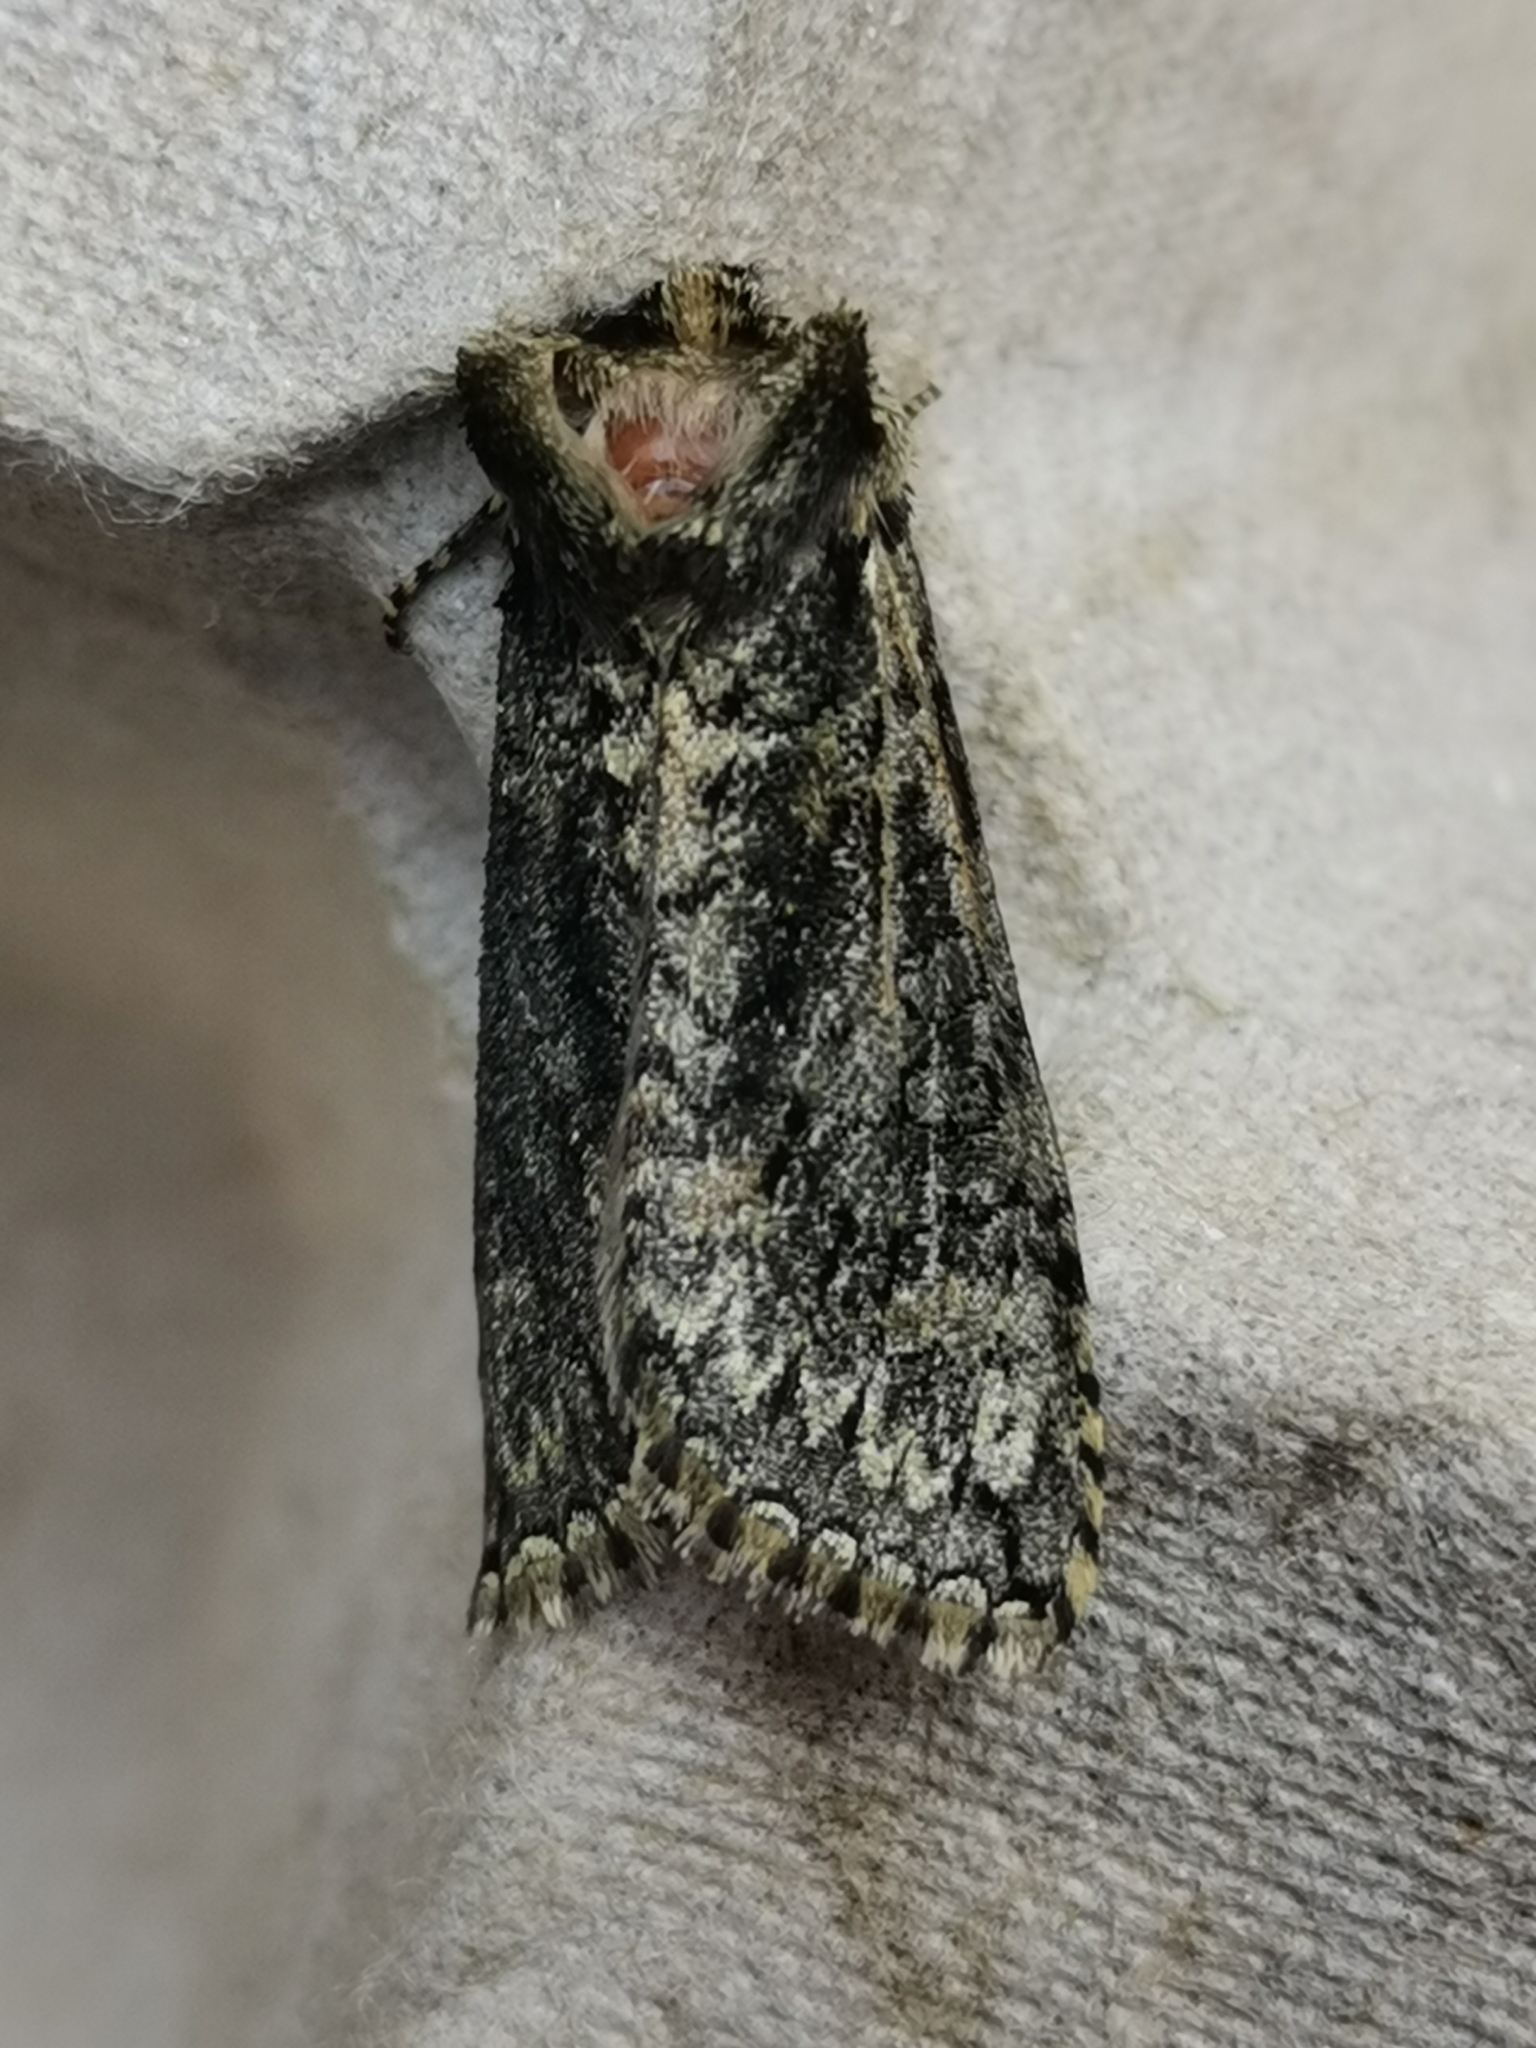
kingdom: Animalia
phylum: Arthropoda
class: Insecta
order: Lepidoptera
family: Drepanidae
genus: Polyploca
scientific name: Polyploca ridens
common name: Frosted green
